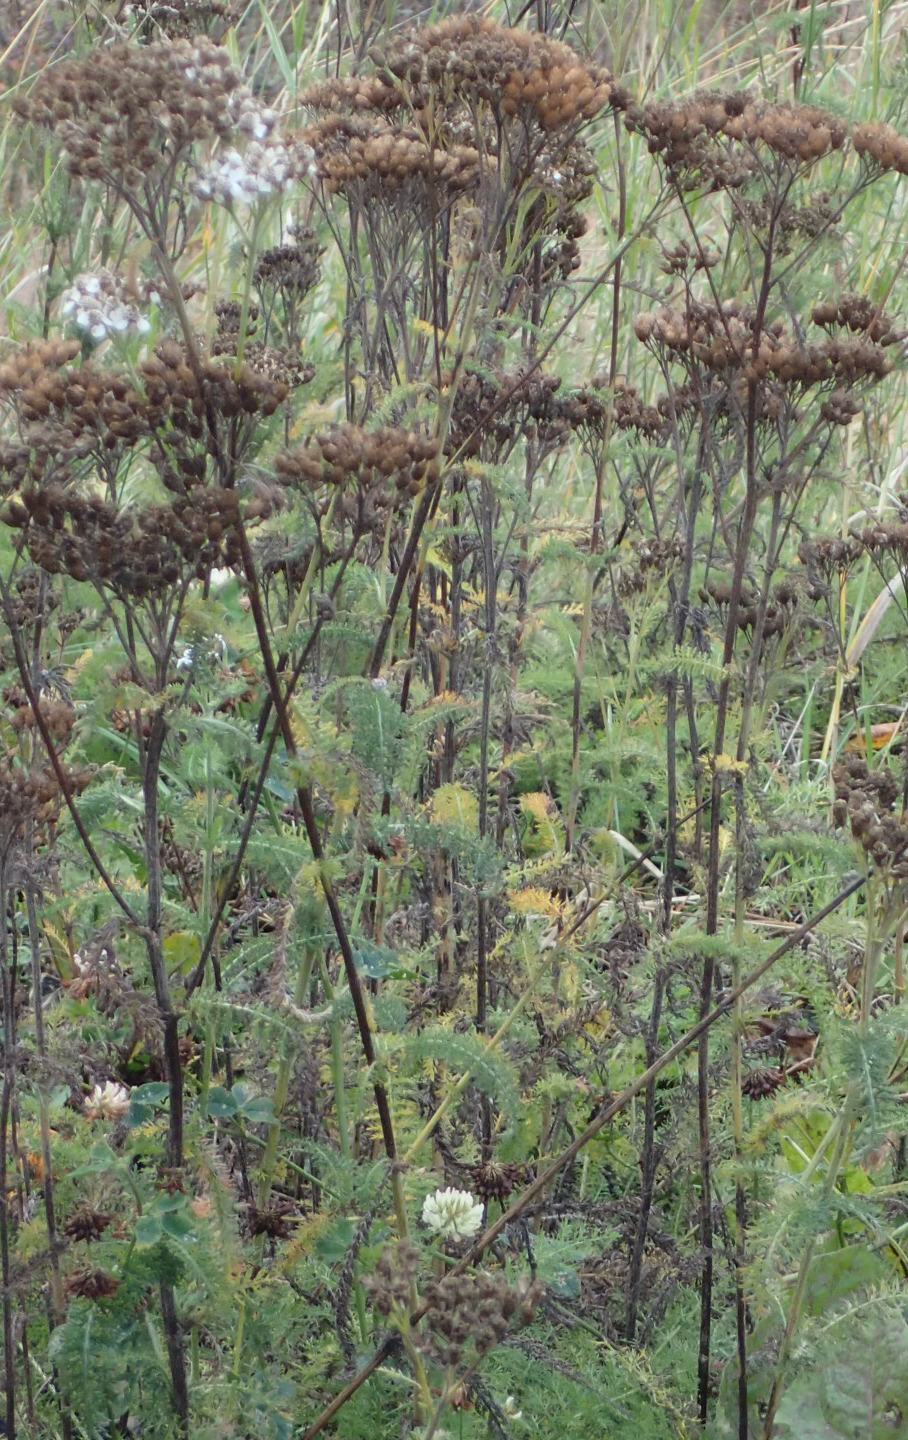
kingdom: Plantae
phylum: Tracheophyta
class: Magnoliopsida
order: Asterales
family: Asteraceae
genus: Achillea
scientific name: Achillea millefolium
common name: Yarrow
